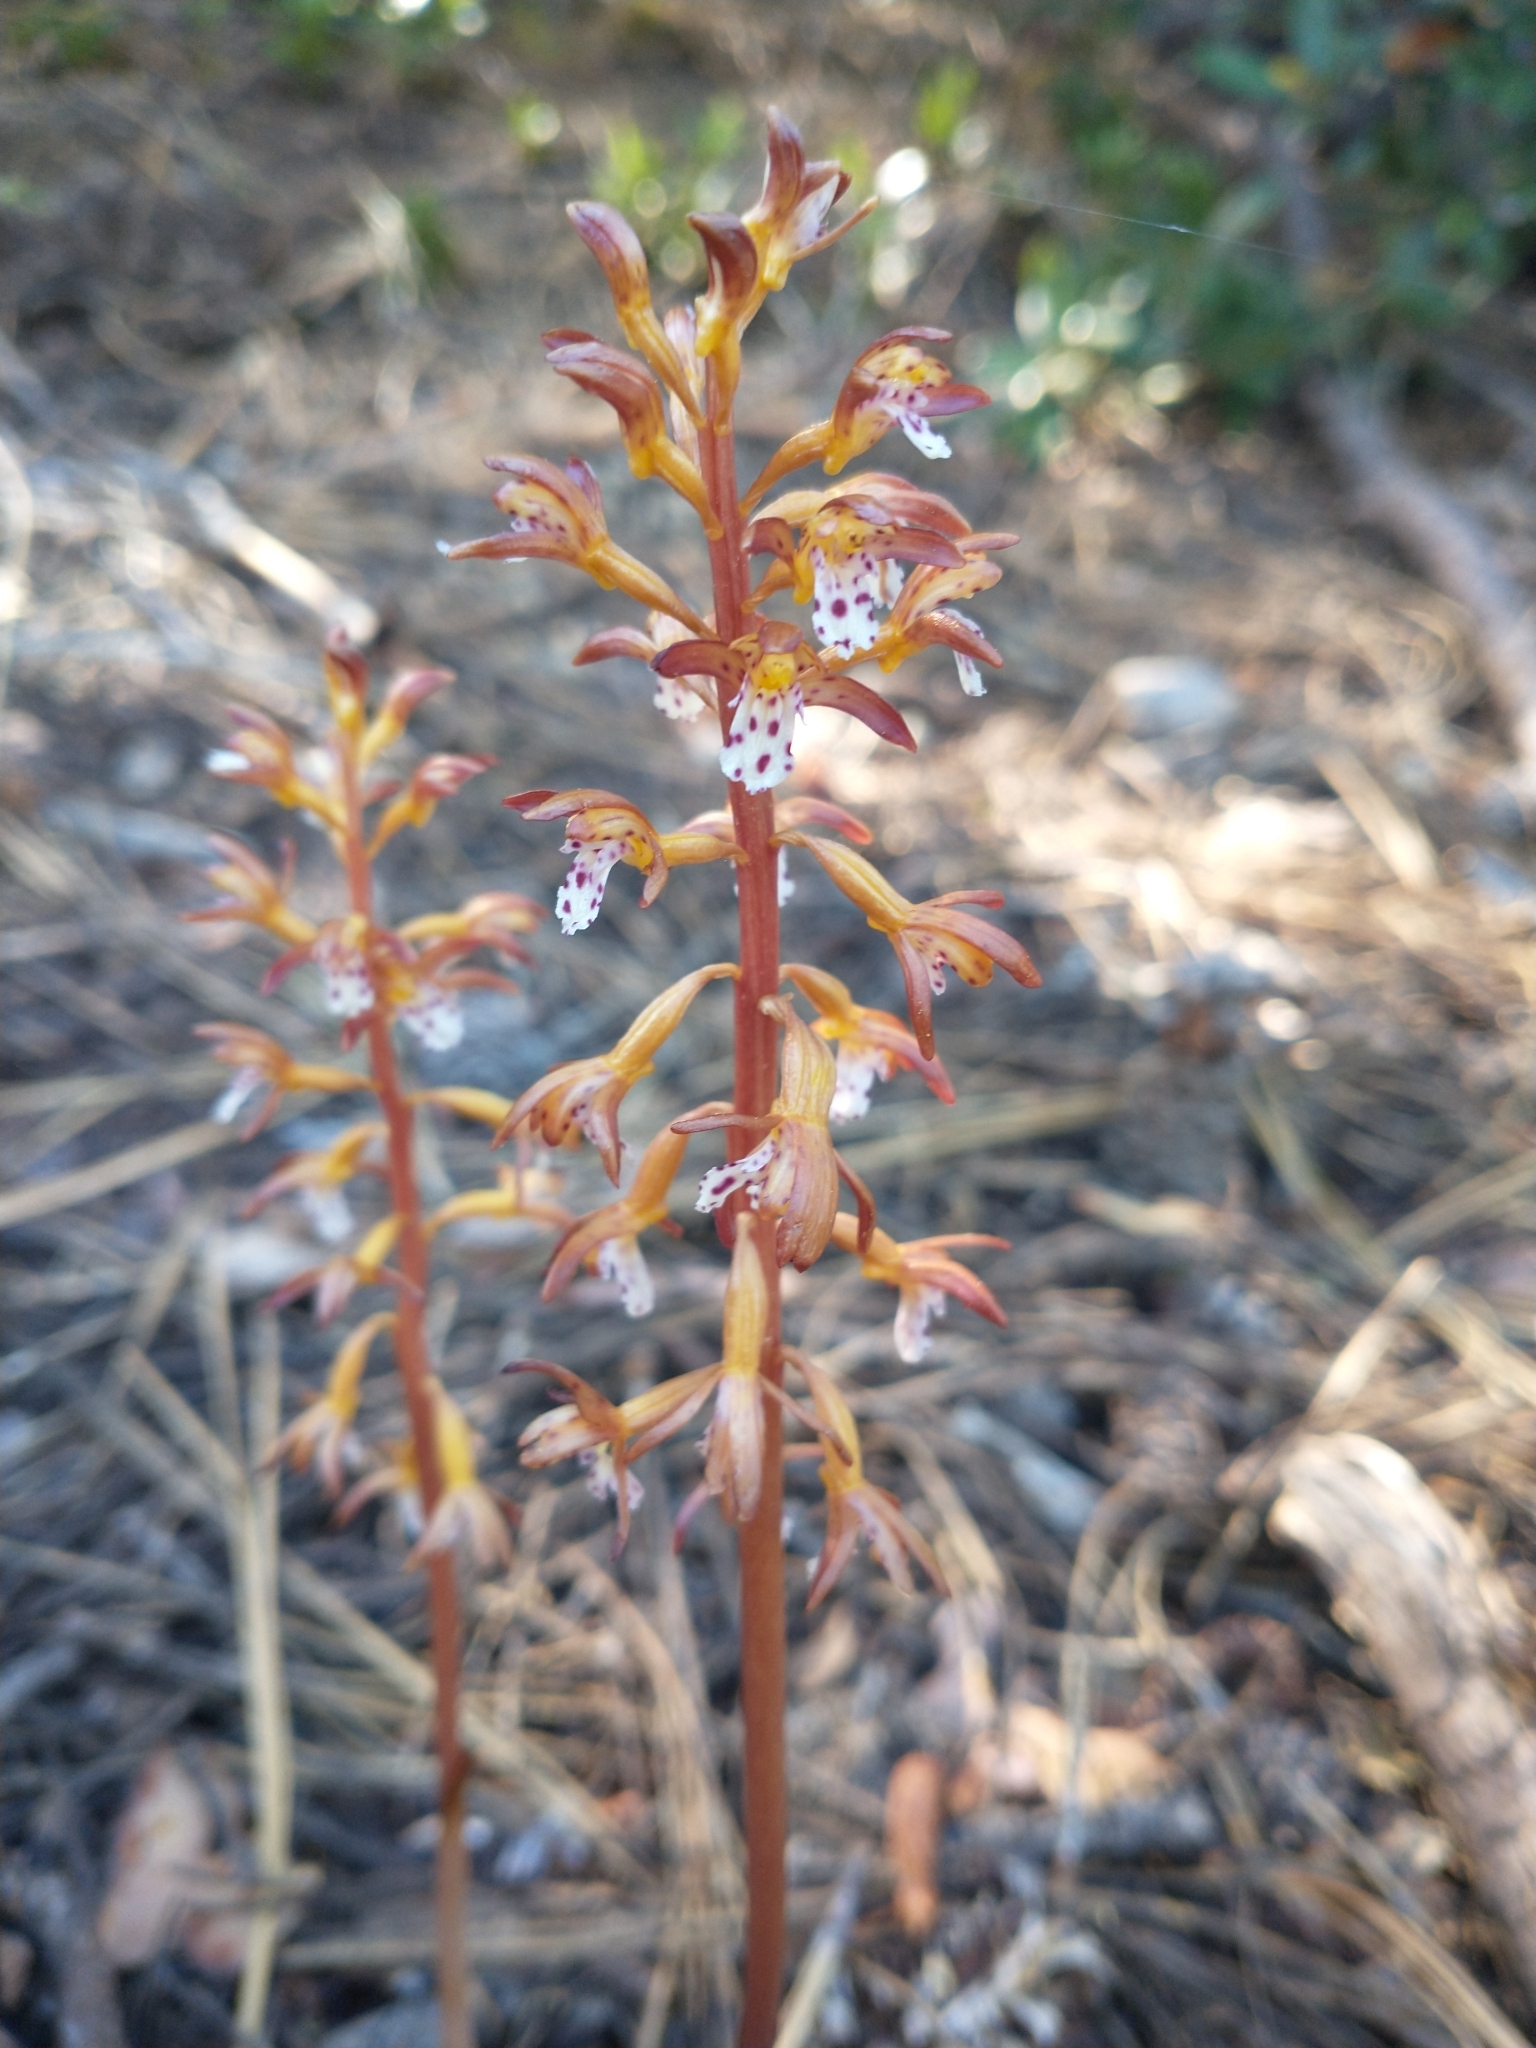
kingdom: Plantae
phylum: Tracheophyta
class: Liliopsida
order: Asparagales
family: Orchidaceae
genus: Corallorhiza
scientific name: Corallorhiza maculata
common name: Spotted coralroot
